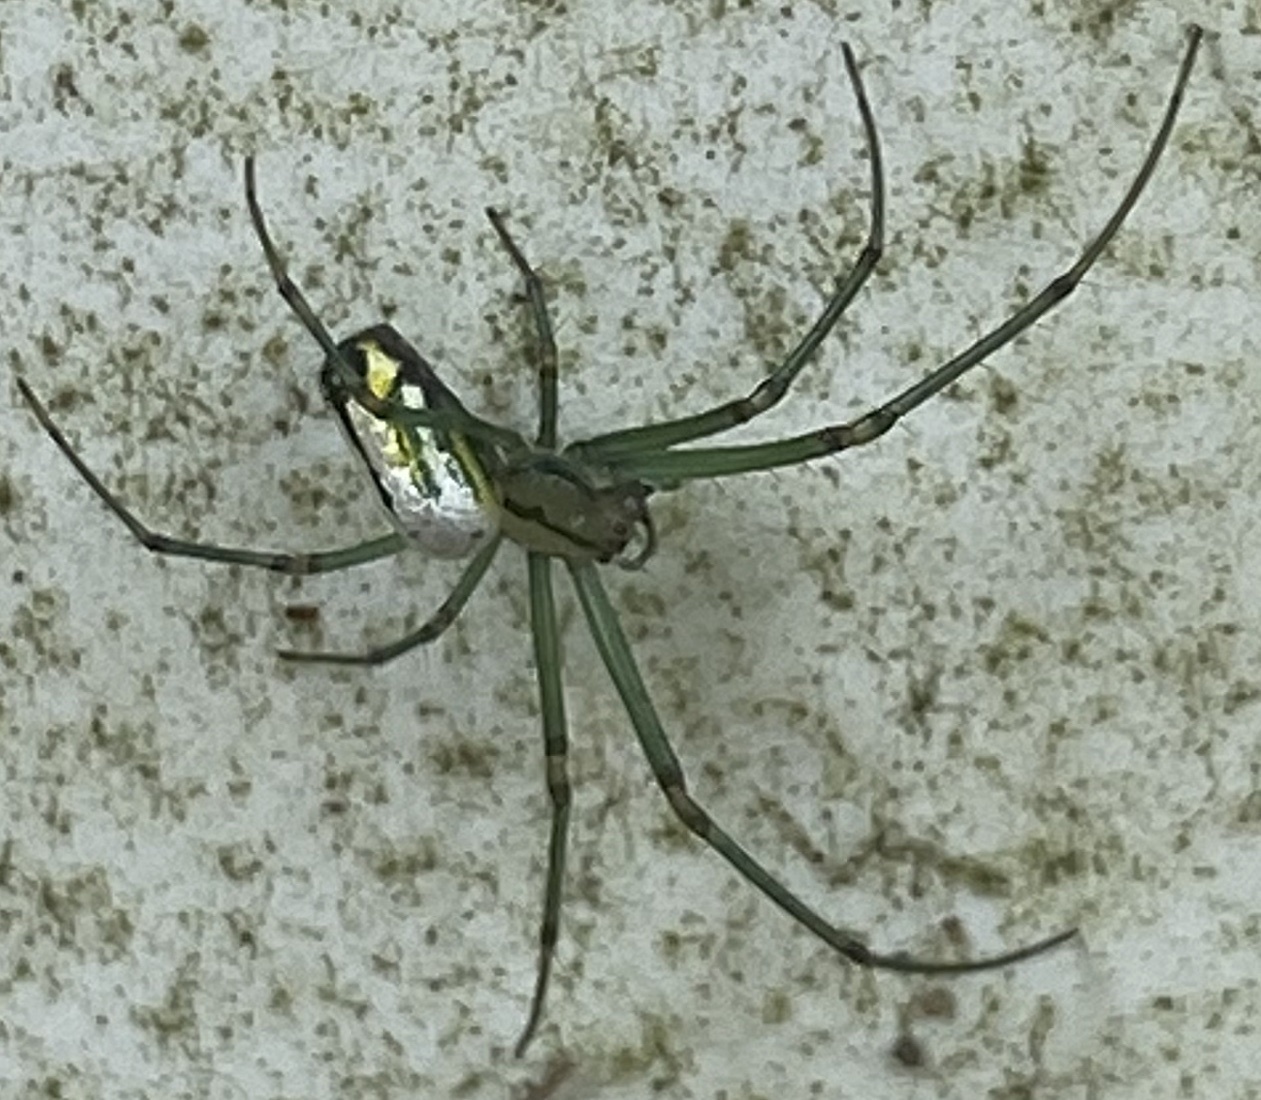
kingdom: Animalia
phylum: Arthropoda
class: Arachnida
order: Araneae
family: Tetragnathidae
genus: Leucauge
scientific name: Leucauge venusta
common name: Longjawed orb weavers
